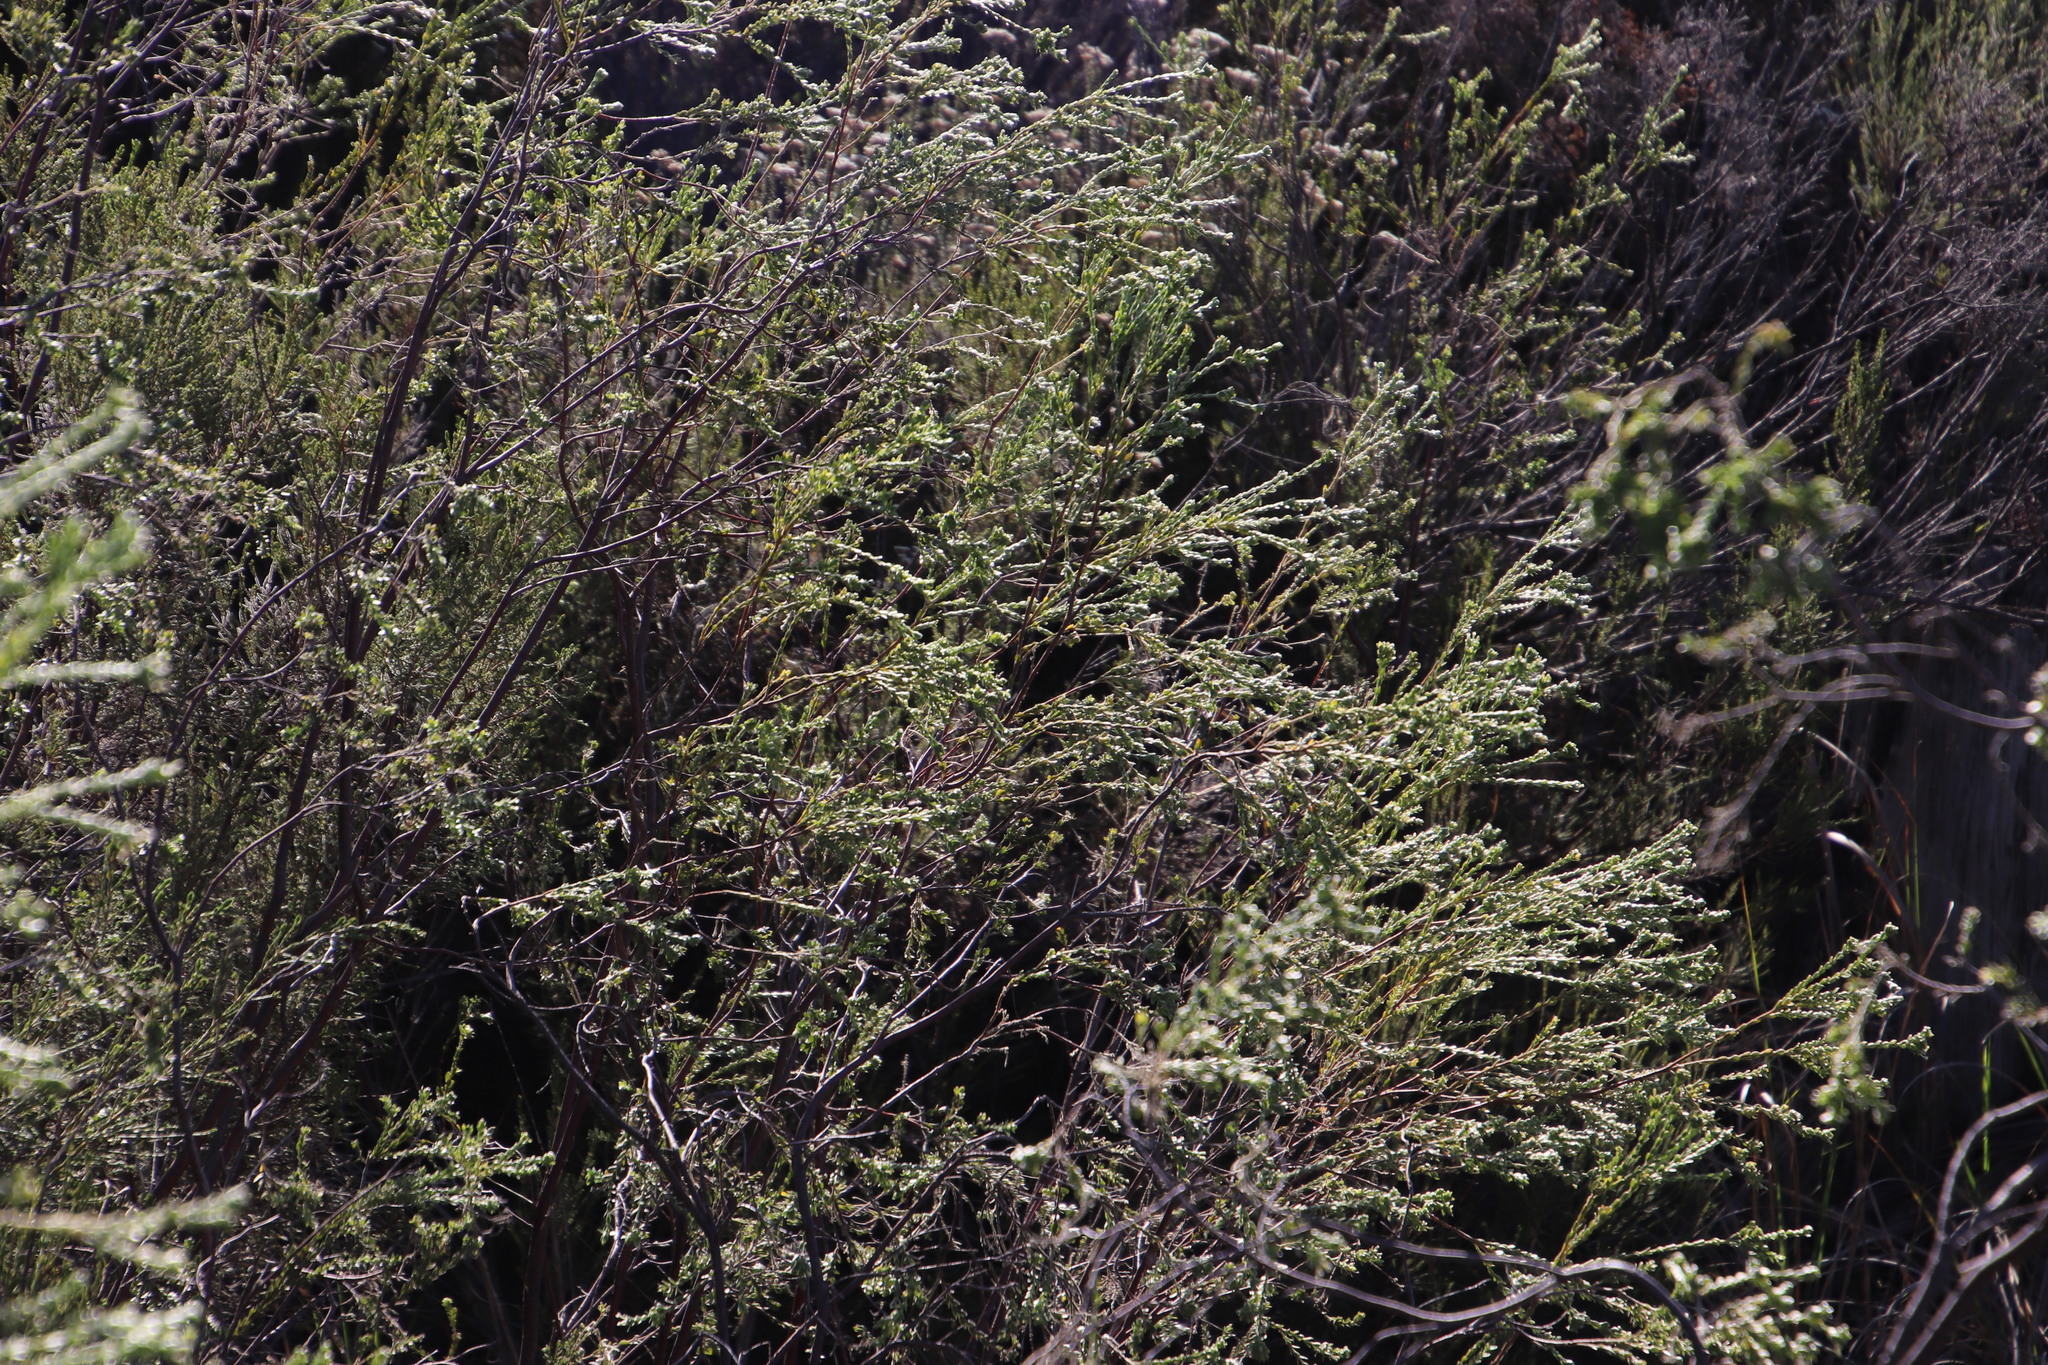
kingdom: Plantae
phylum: Tracheophyta
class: Magnoliopsida
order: Malvales
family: Thymelaeaceae
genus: Passerina
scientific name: Passerina corymbosa
